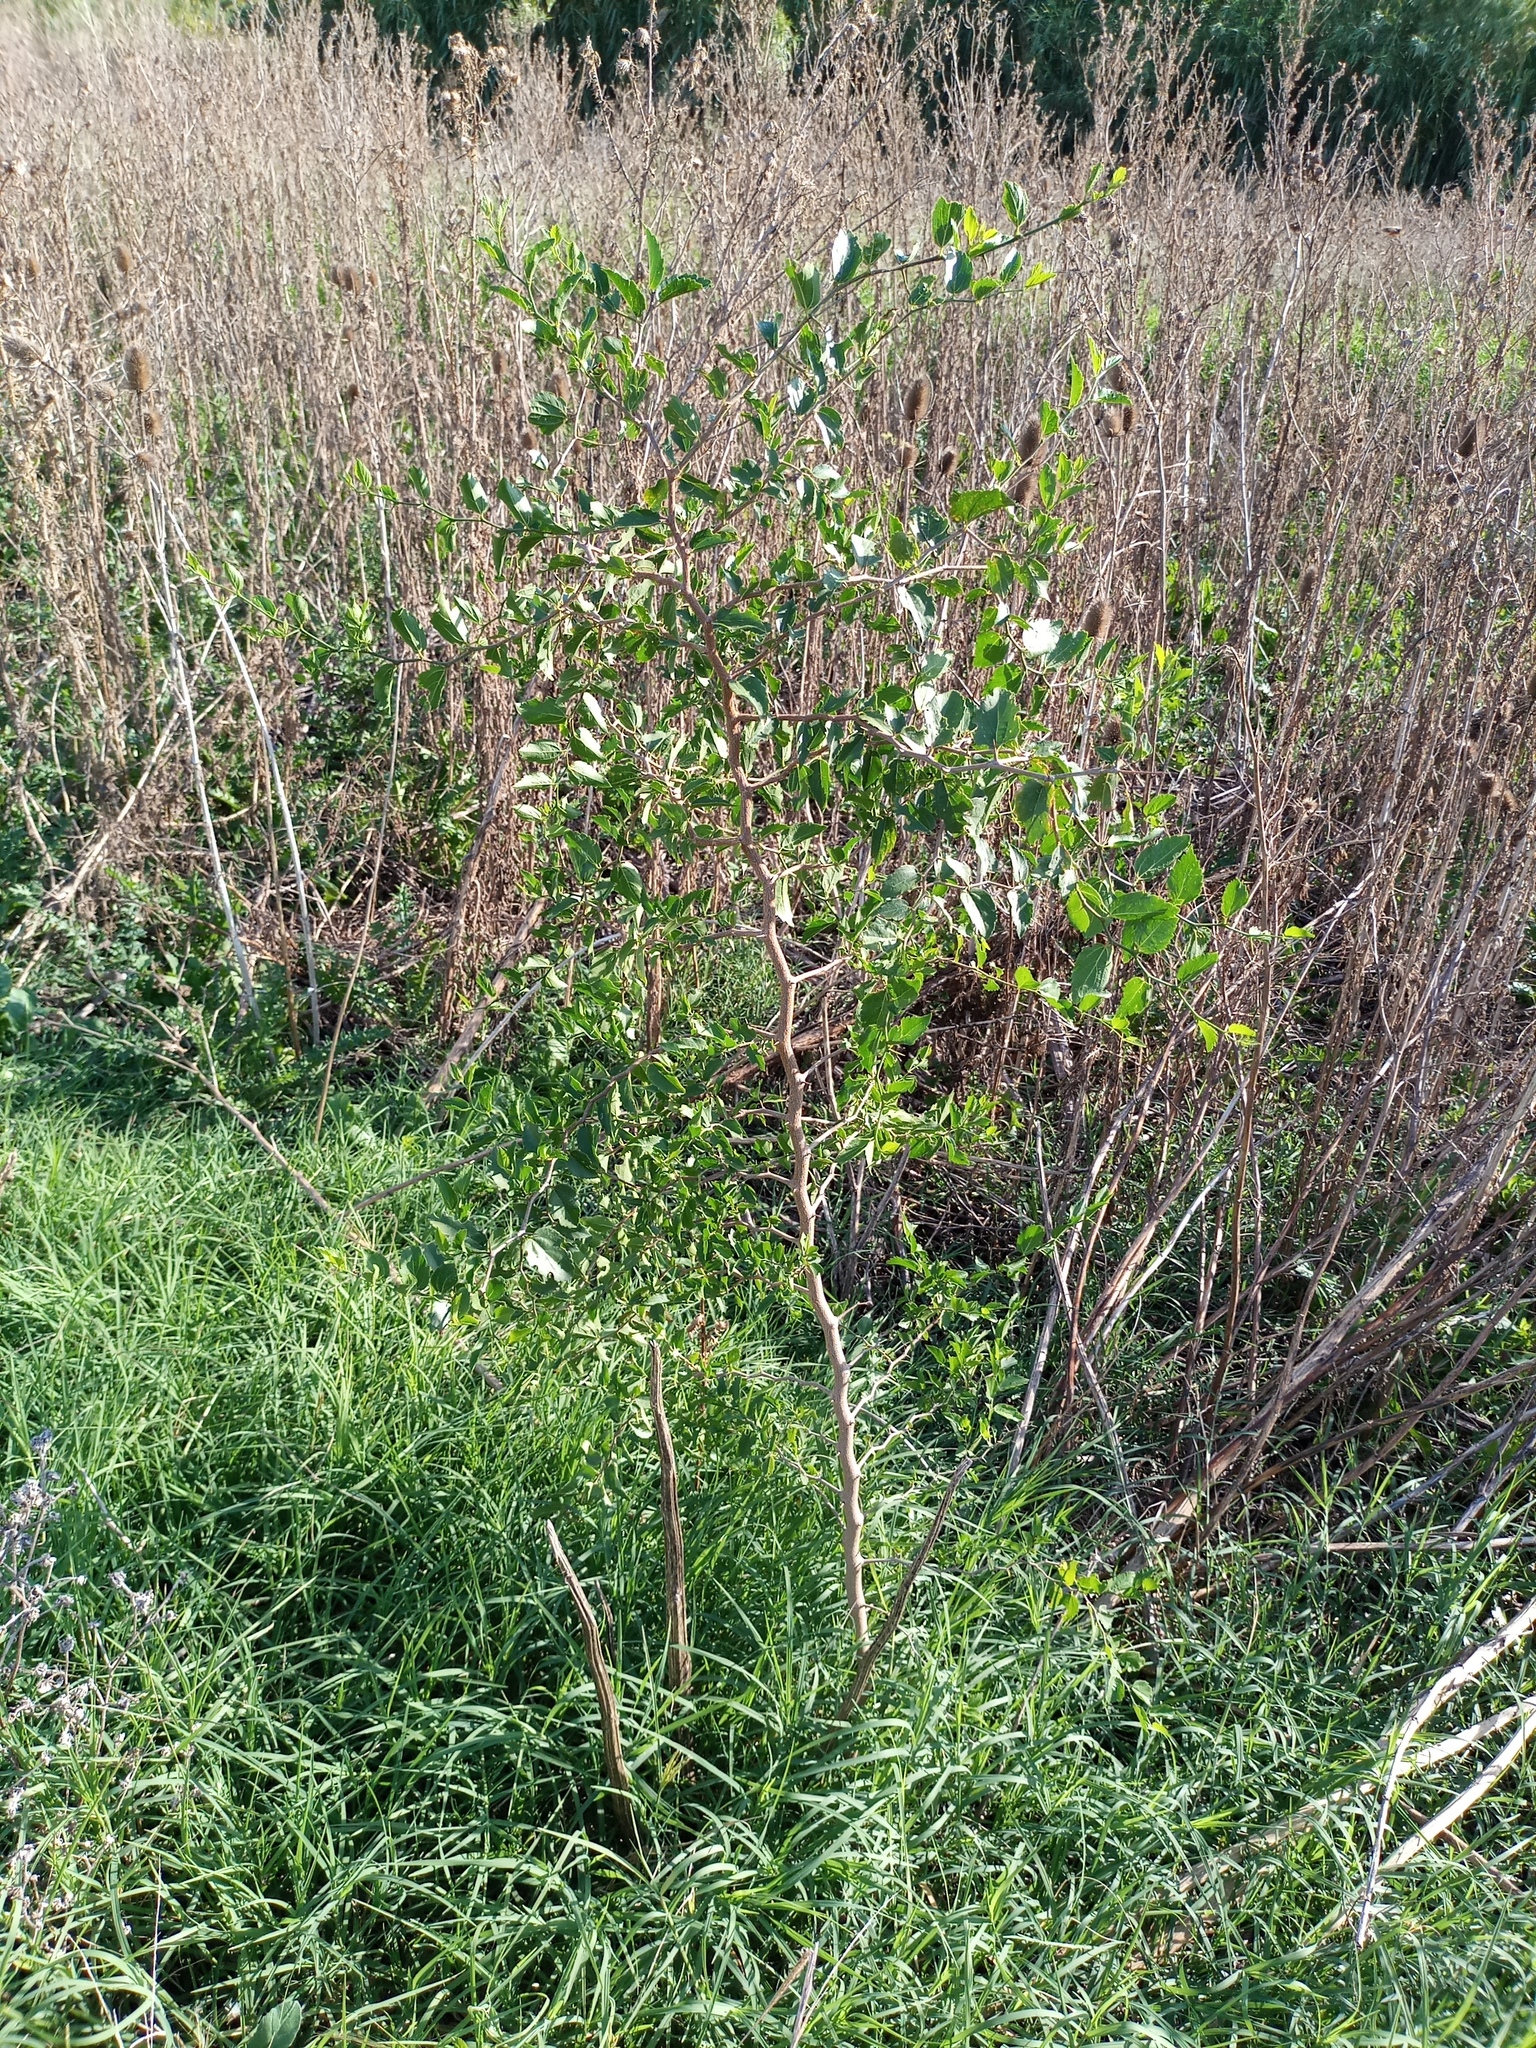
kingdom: Plantae
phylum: Tracheophyta
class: Magnoliopsida
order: Rosales
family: Cannabaceae
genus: Celtis
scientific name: Celtis tala
